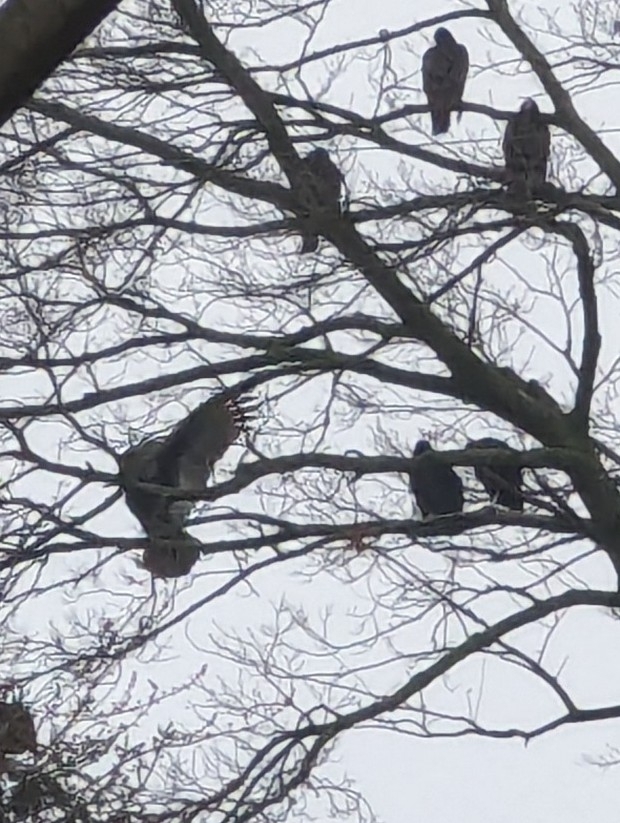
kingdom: Animalia
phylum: Chordata
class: Aves
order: Accipitriformes
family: Cathartidae
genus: Cathartes
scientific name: Cathartes aura
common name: Turkey vulture
